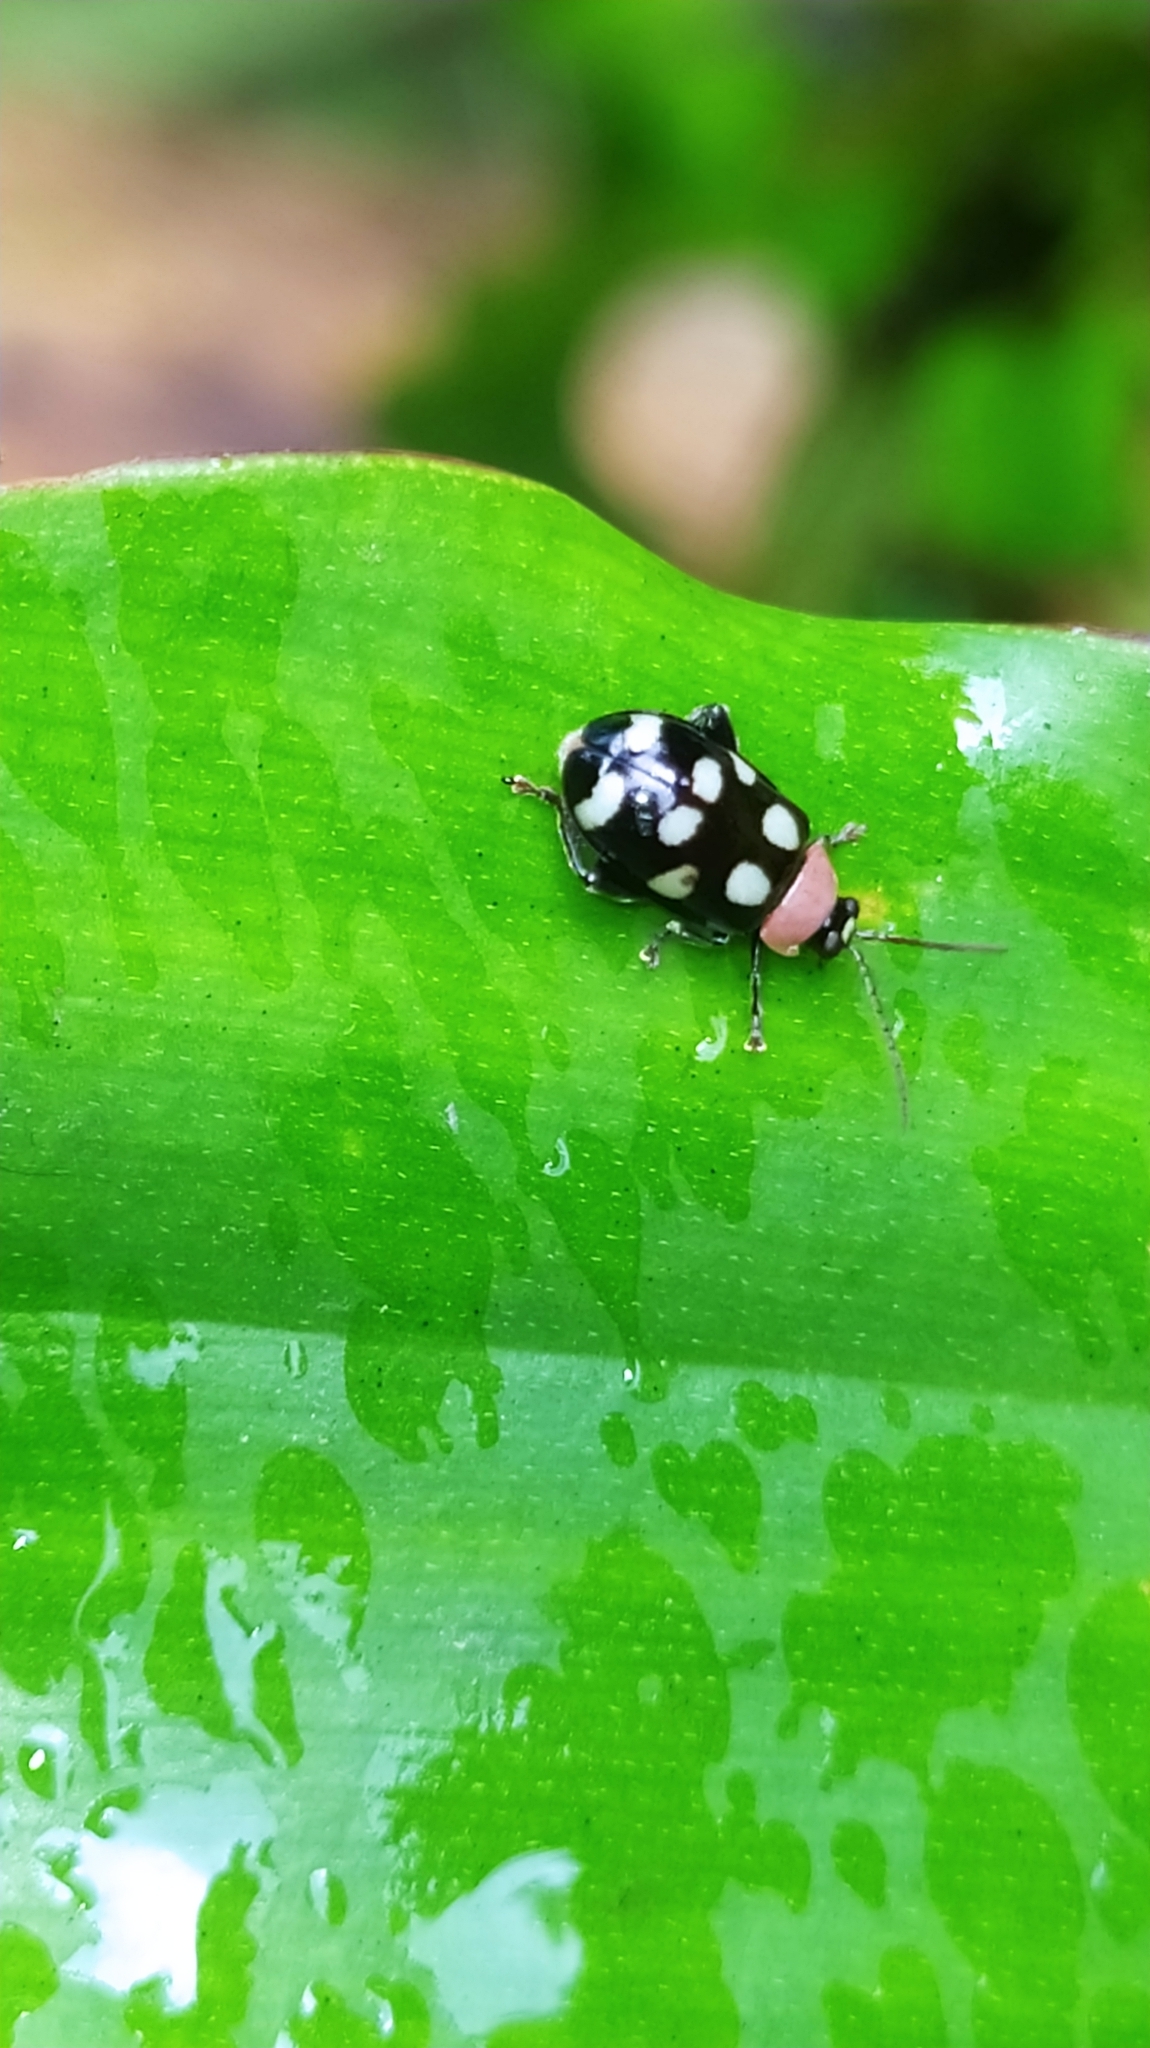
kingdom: Animalia
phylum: Arthropoda
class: Insecta
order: Coleoptera
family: Chrysomelidae
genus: Omophoita
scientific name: Omophoita aequinoctialis
